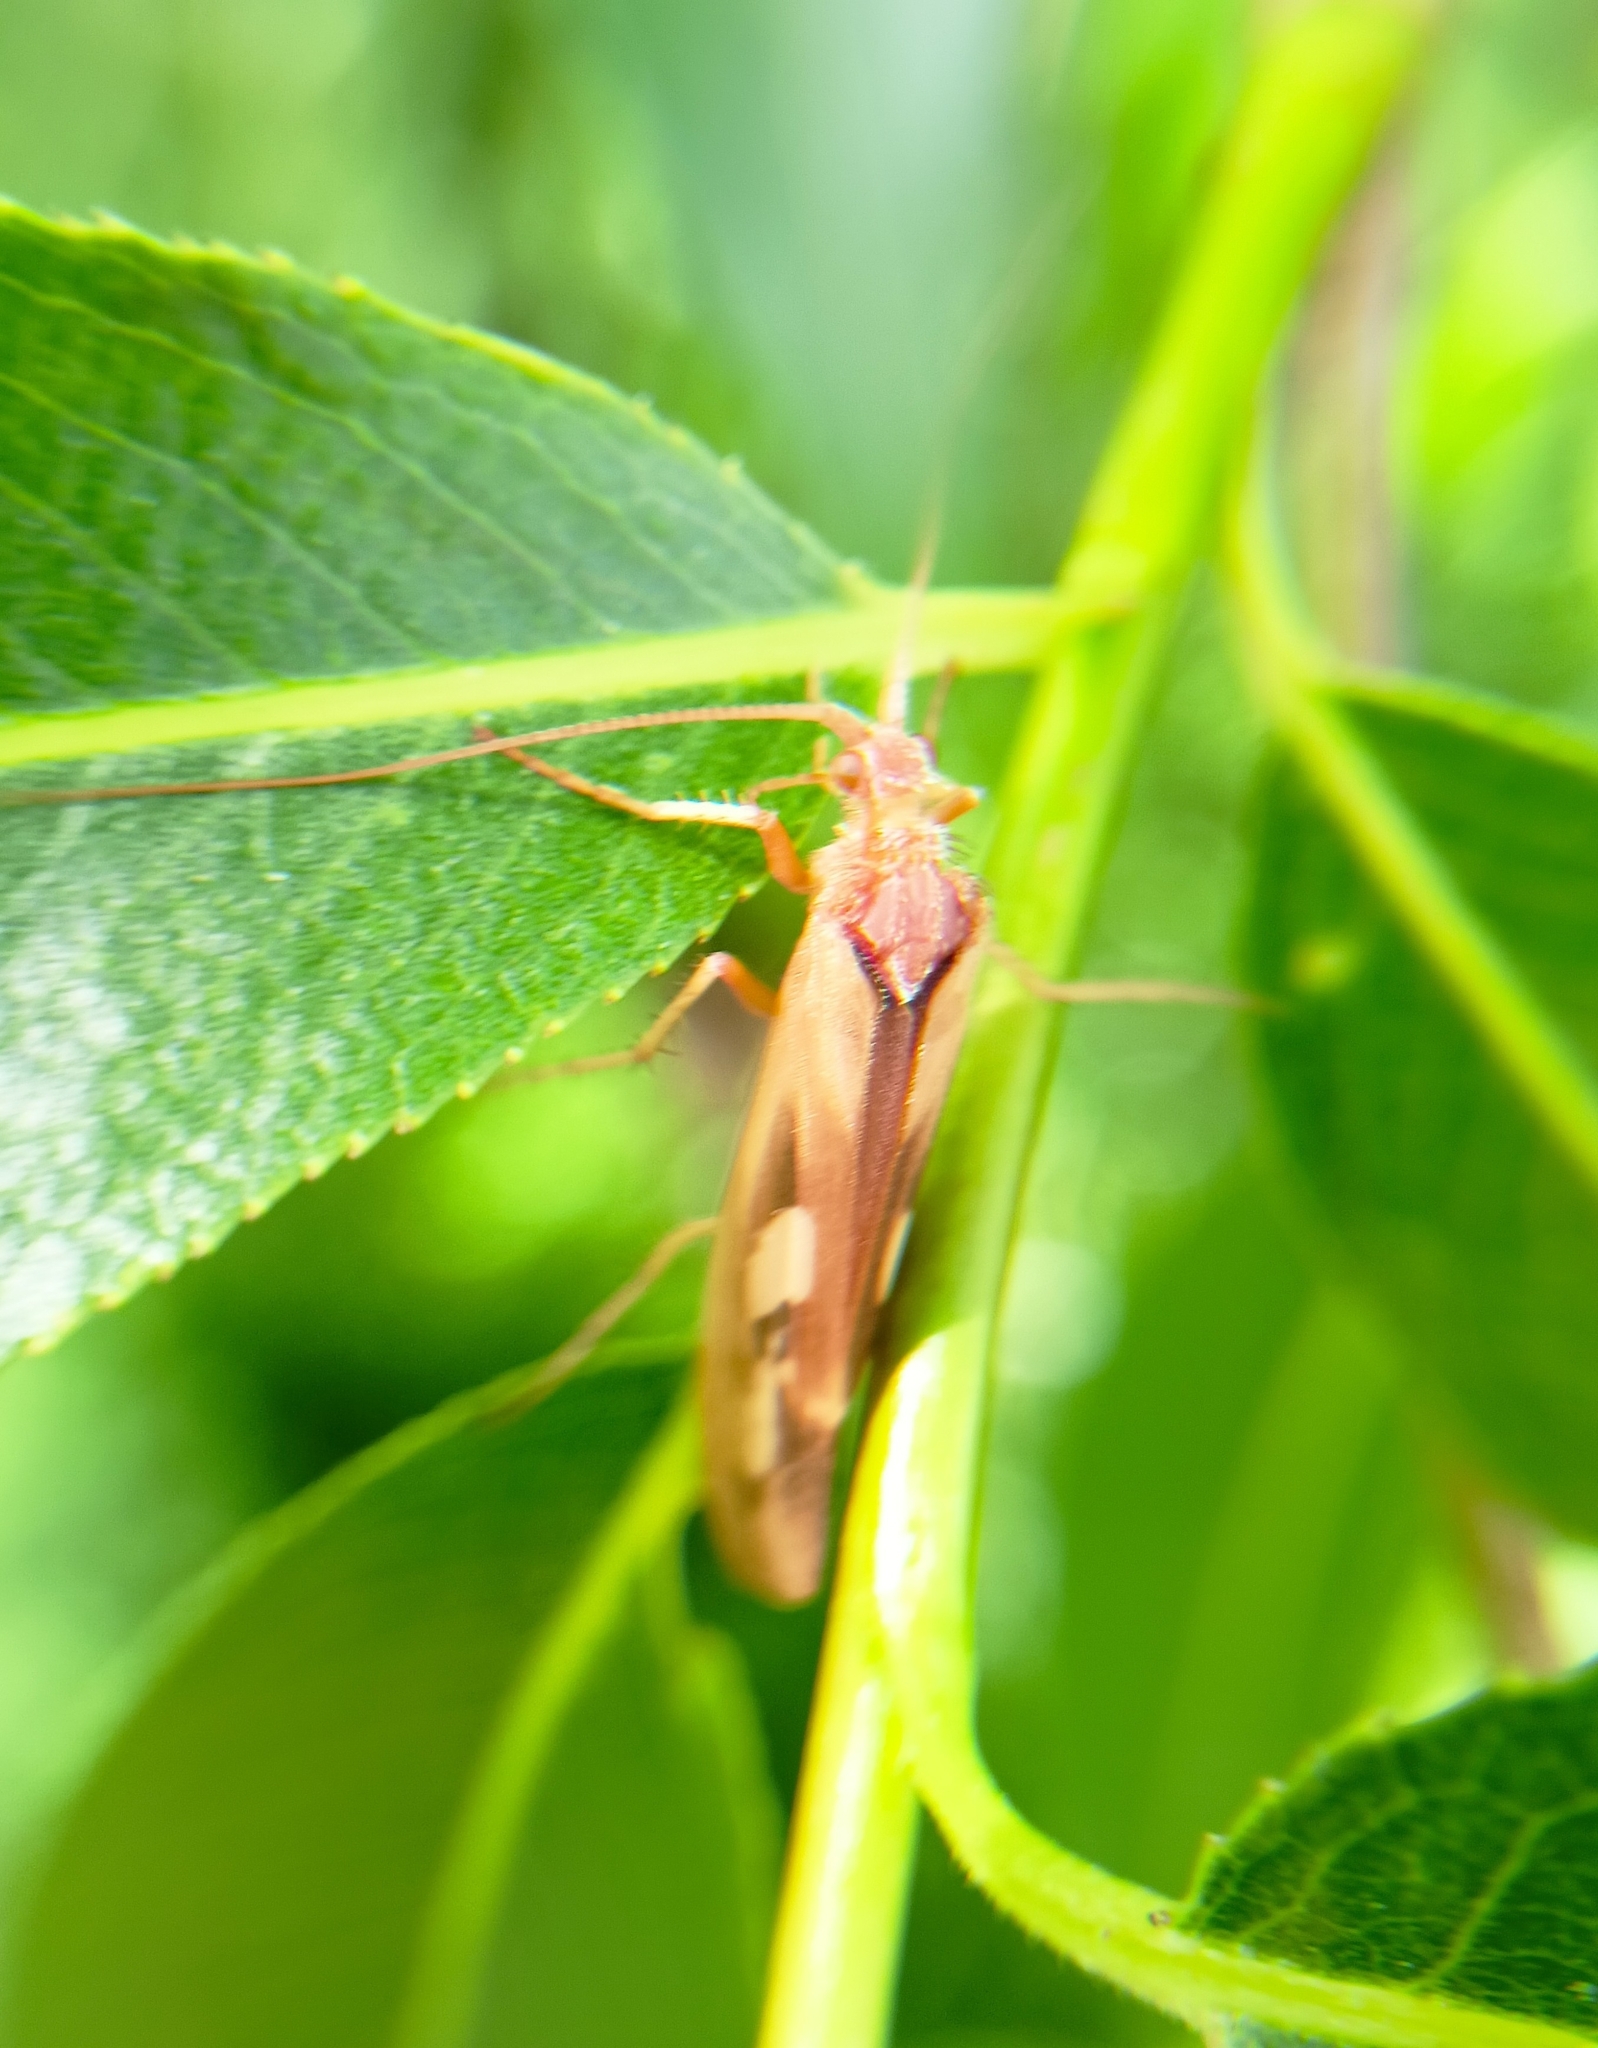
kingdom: Animalia
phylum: Arthropoda
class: Insecta
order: Trichoptera
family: Limnephilidae
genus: Limnephilus
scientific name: Limnephilus rhombicus
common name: Diamond northern caddisfly
